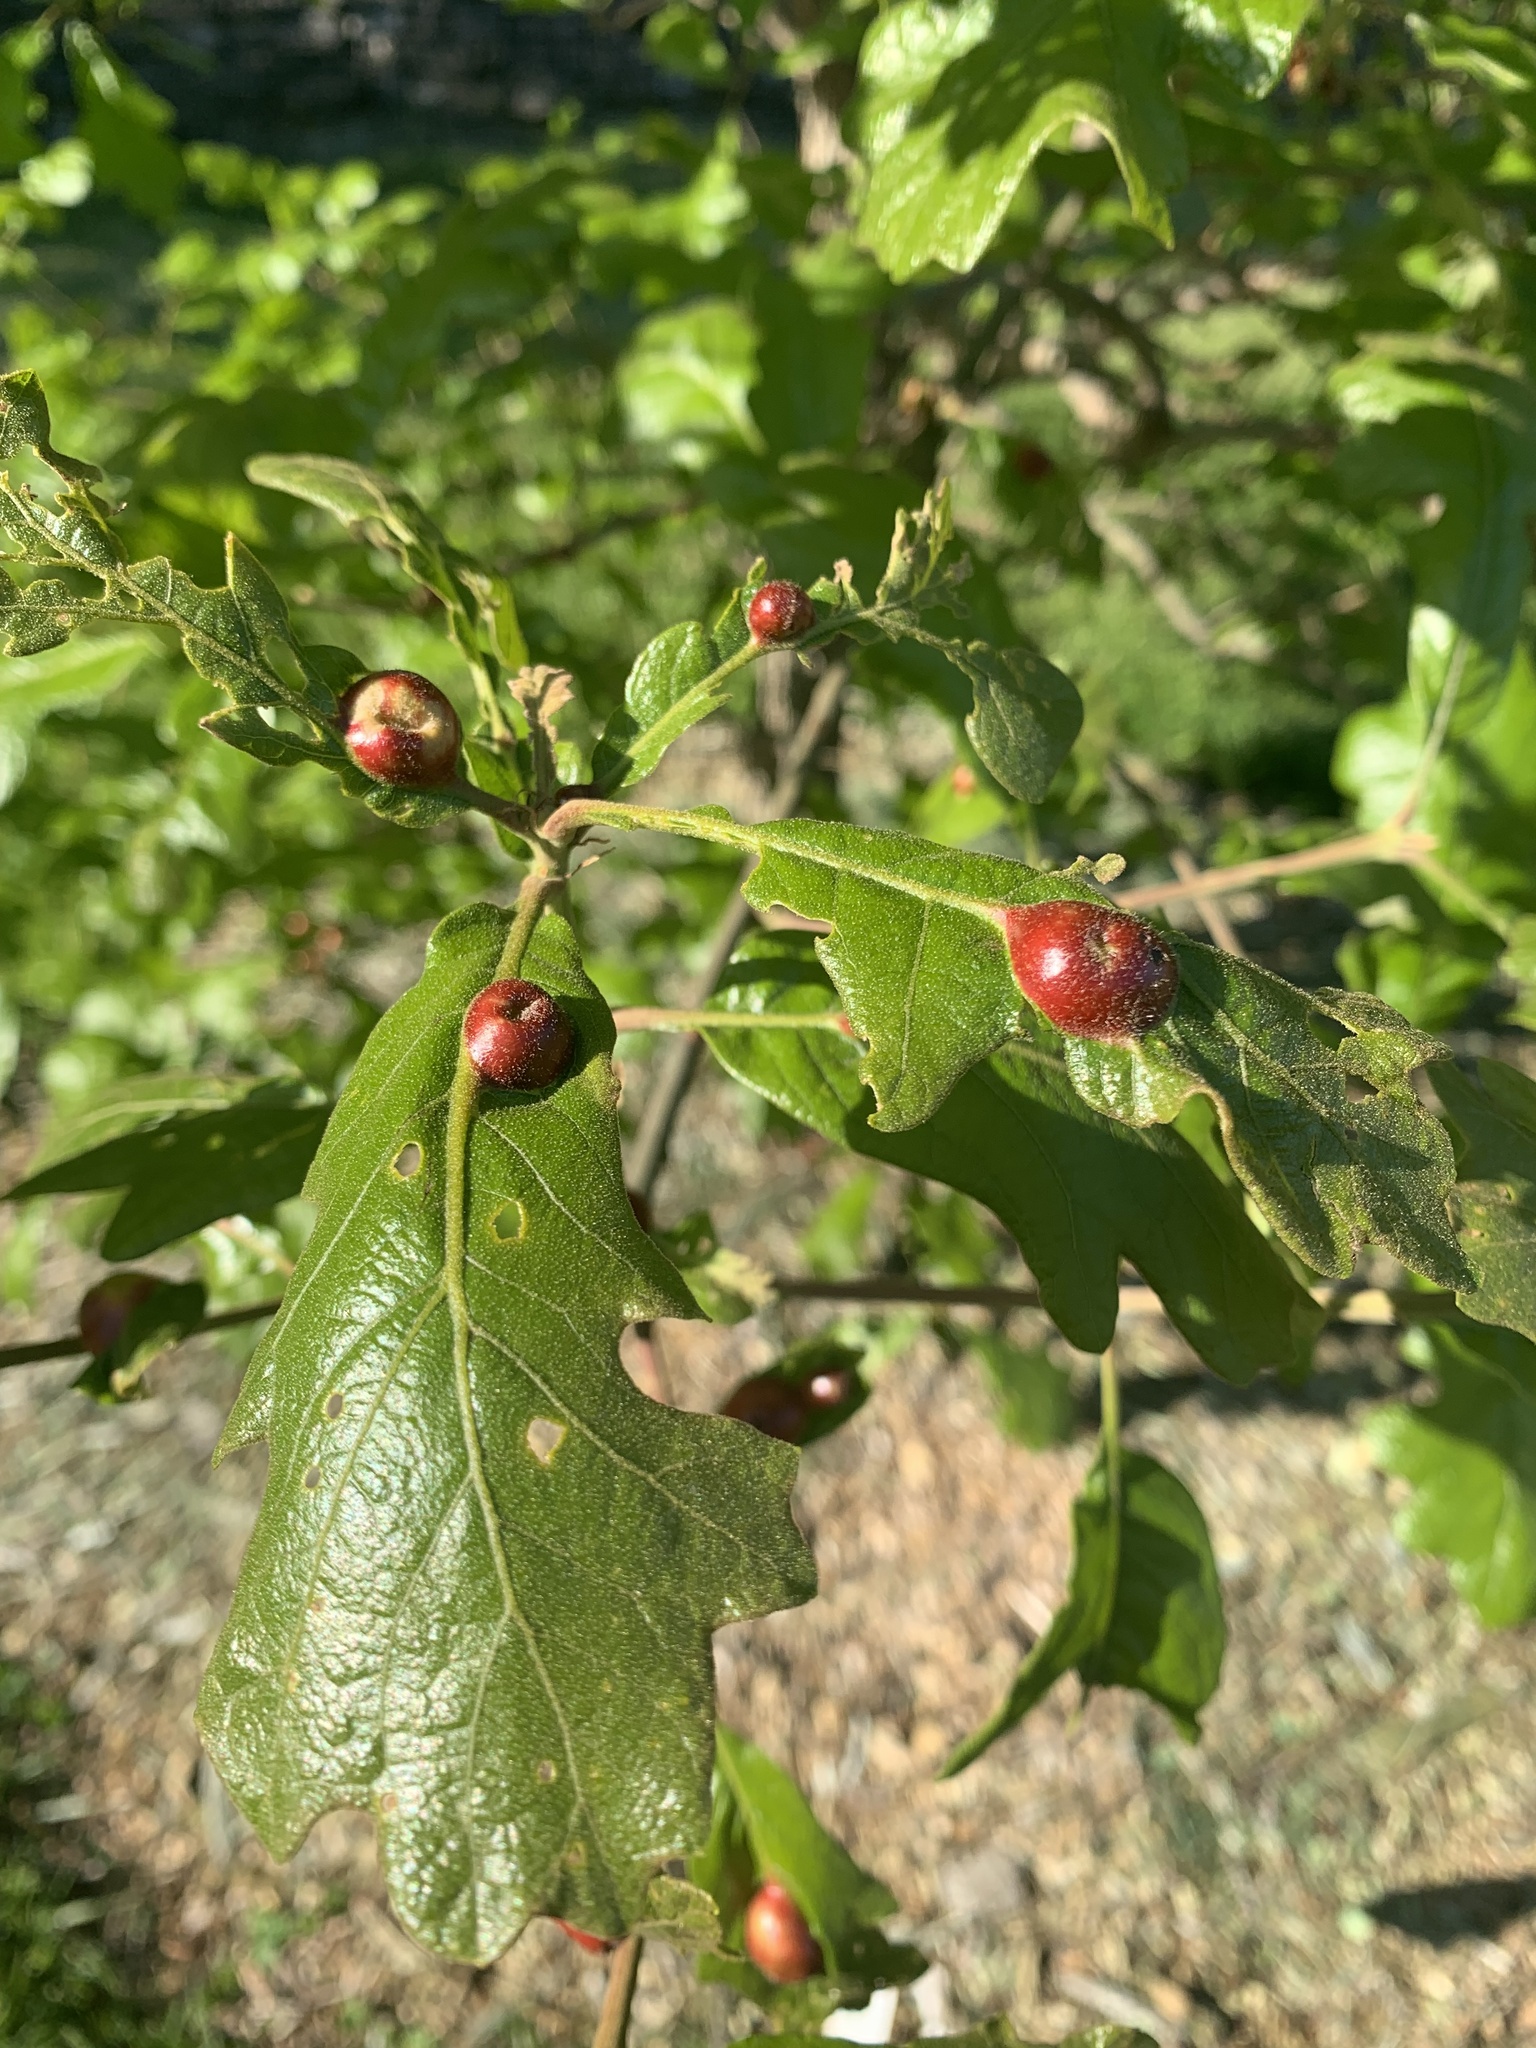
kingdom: Animalia
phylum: Arthropoda
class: Insecta
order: Hymenoptera
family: Cynipidae
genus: Andricus
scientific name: Andricus
